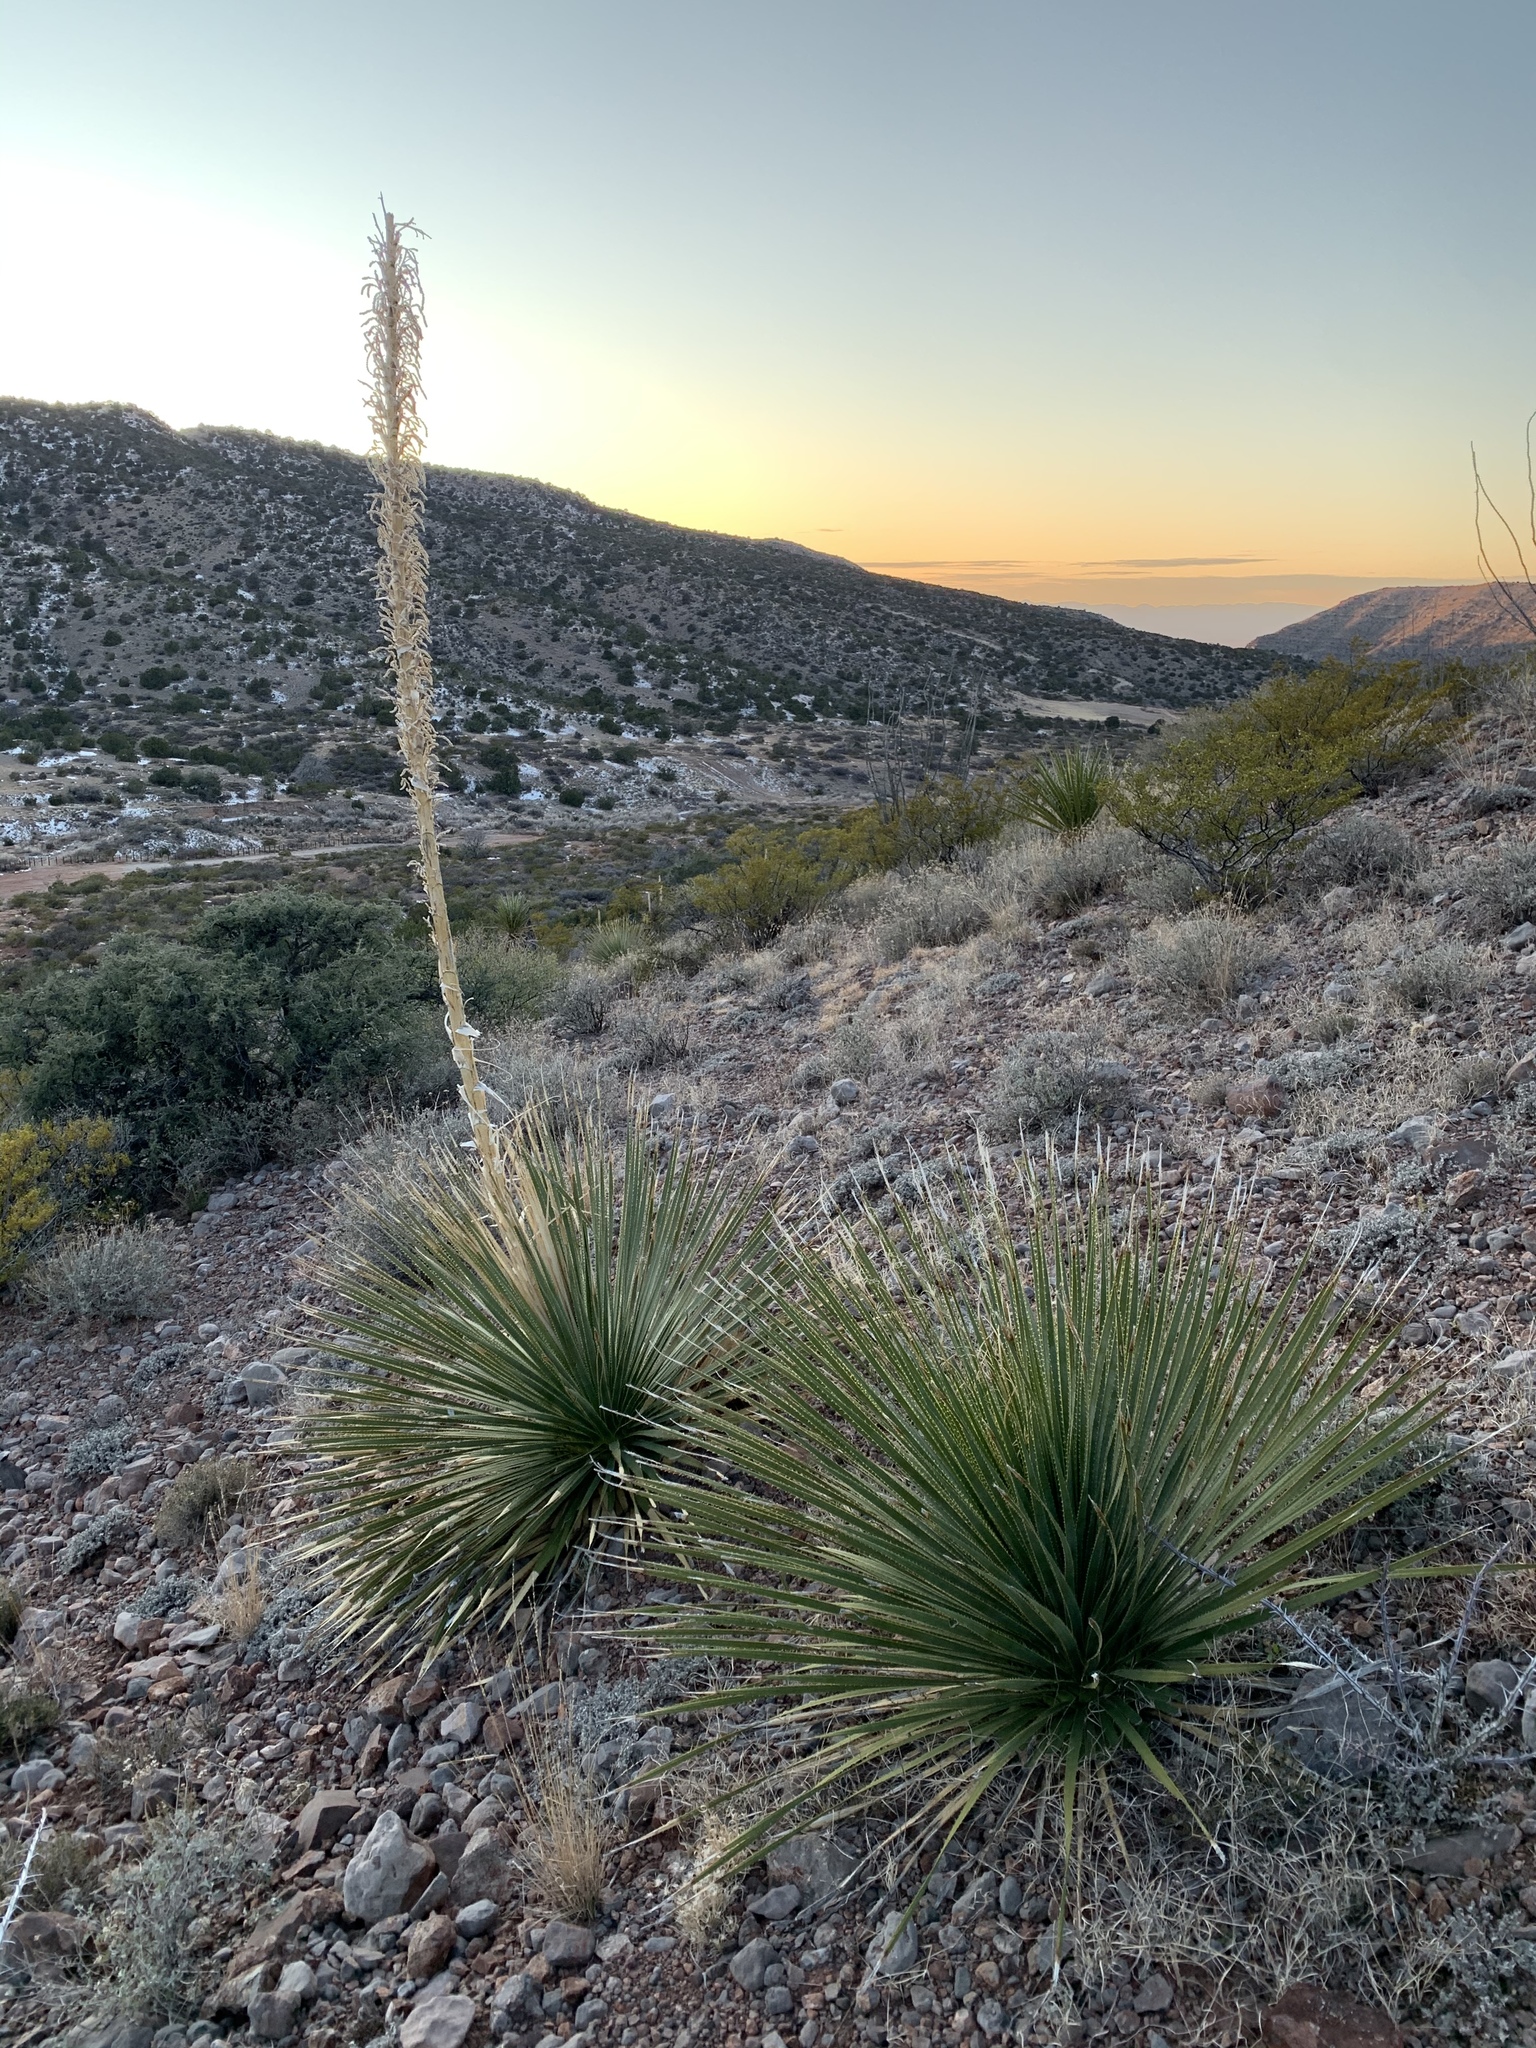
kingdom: Plantae
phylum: Tracheophyta
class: Liliopsida
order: Asparagales
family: Asparagaceae
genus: Dasylirion
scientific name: Dasylirion wheeleri
